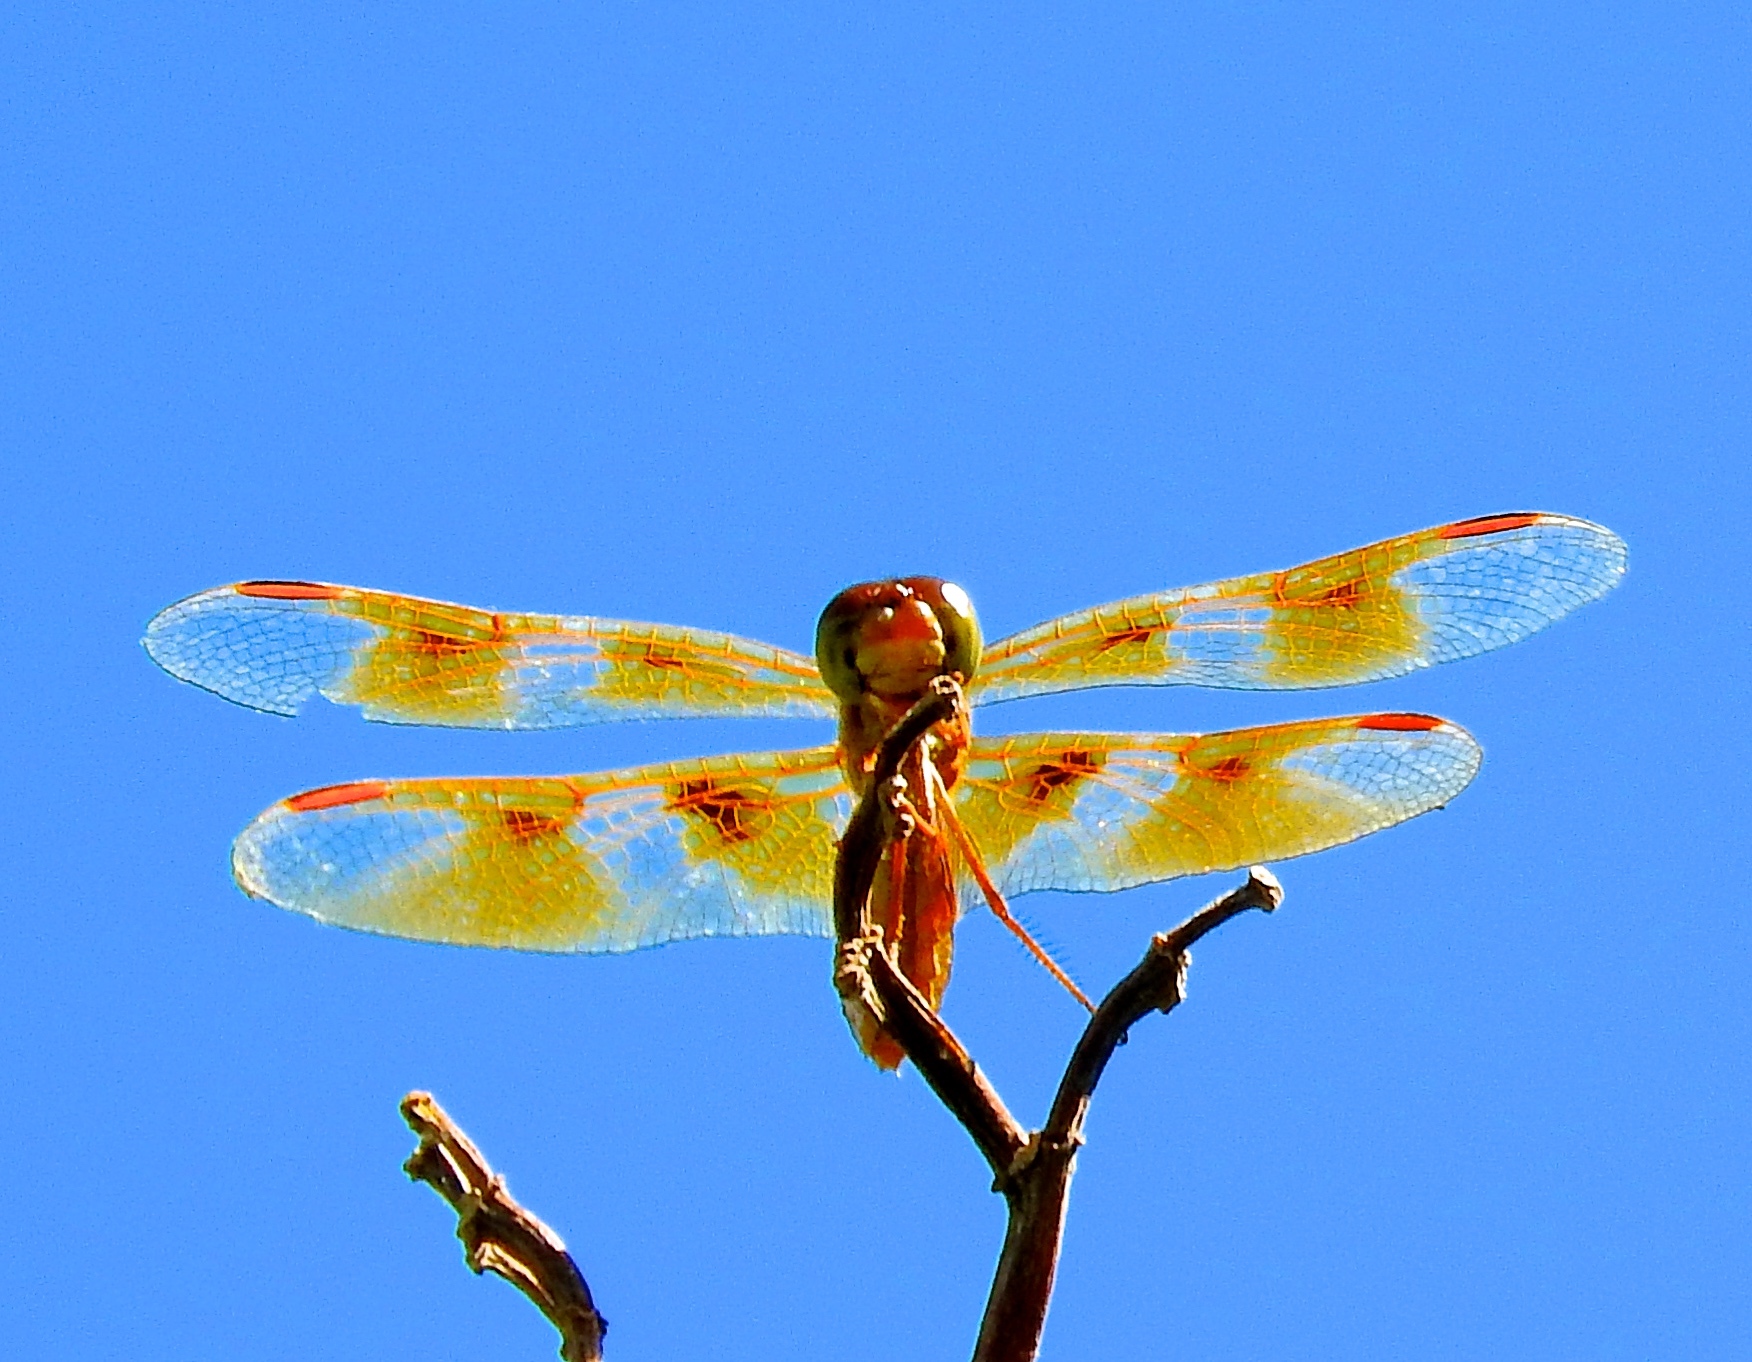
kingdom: Animalia
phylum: Arthropoda
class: Insecta
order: Odonata
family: Libellulidae
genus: Perithemis
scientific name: Perithemis
